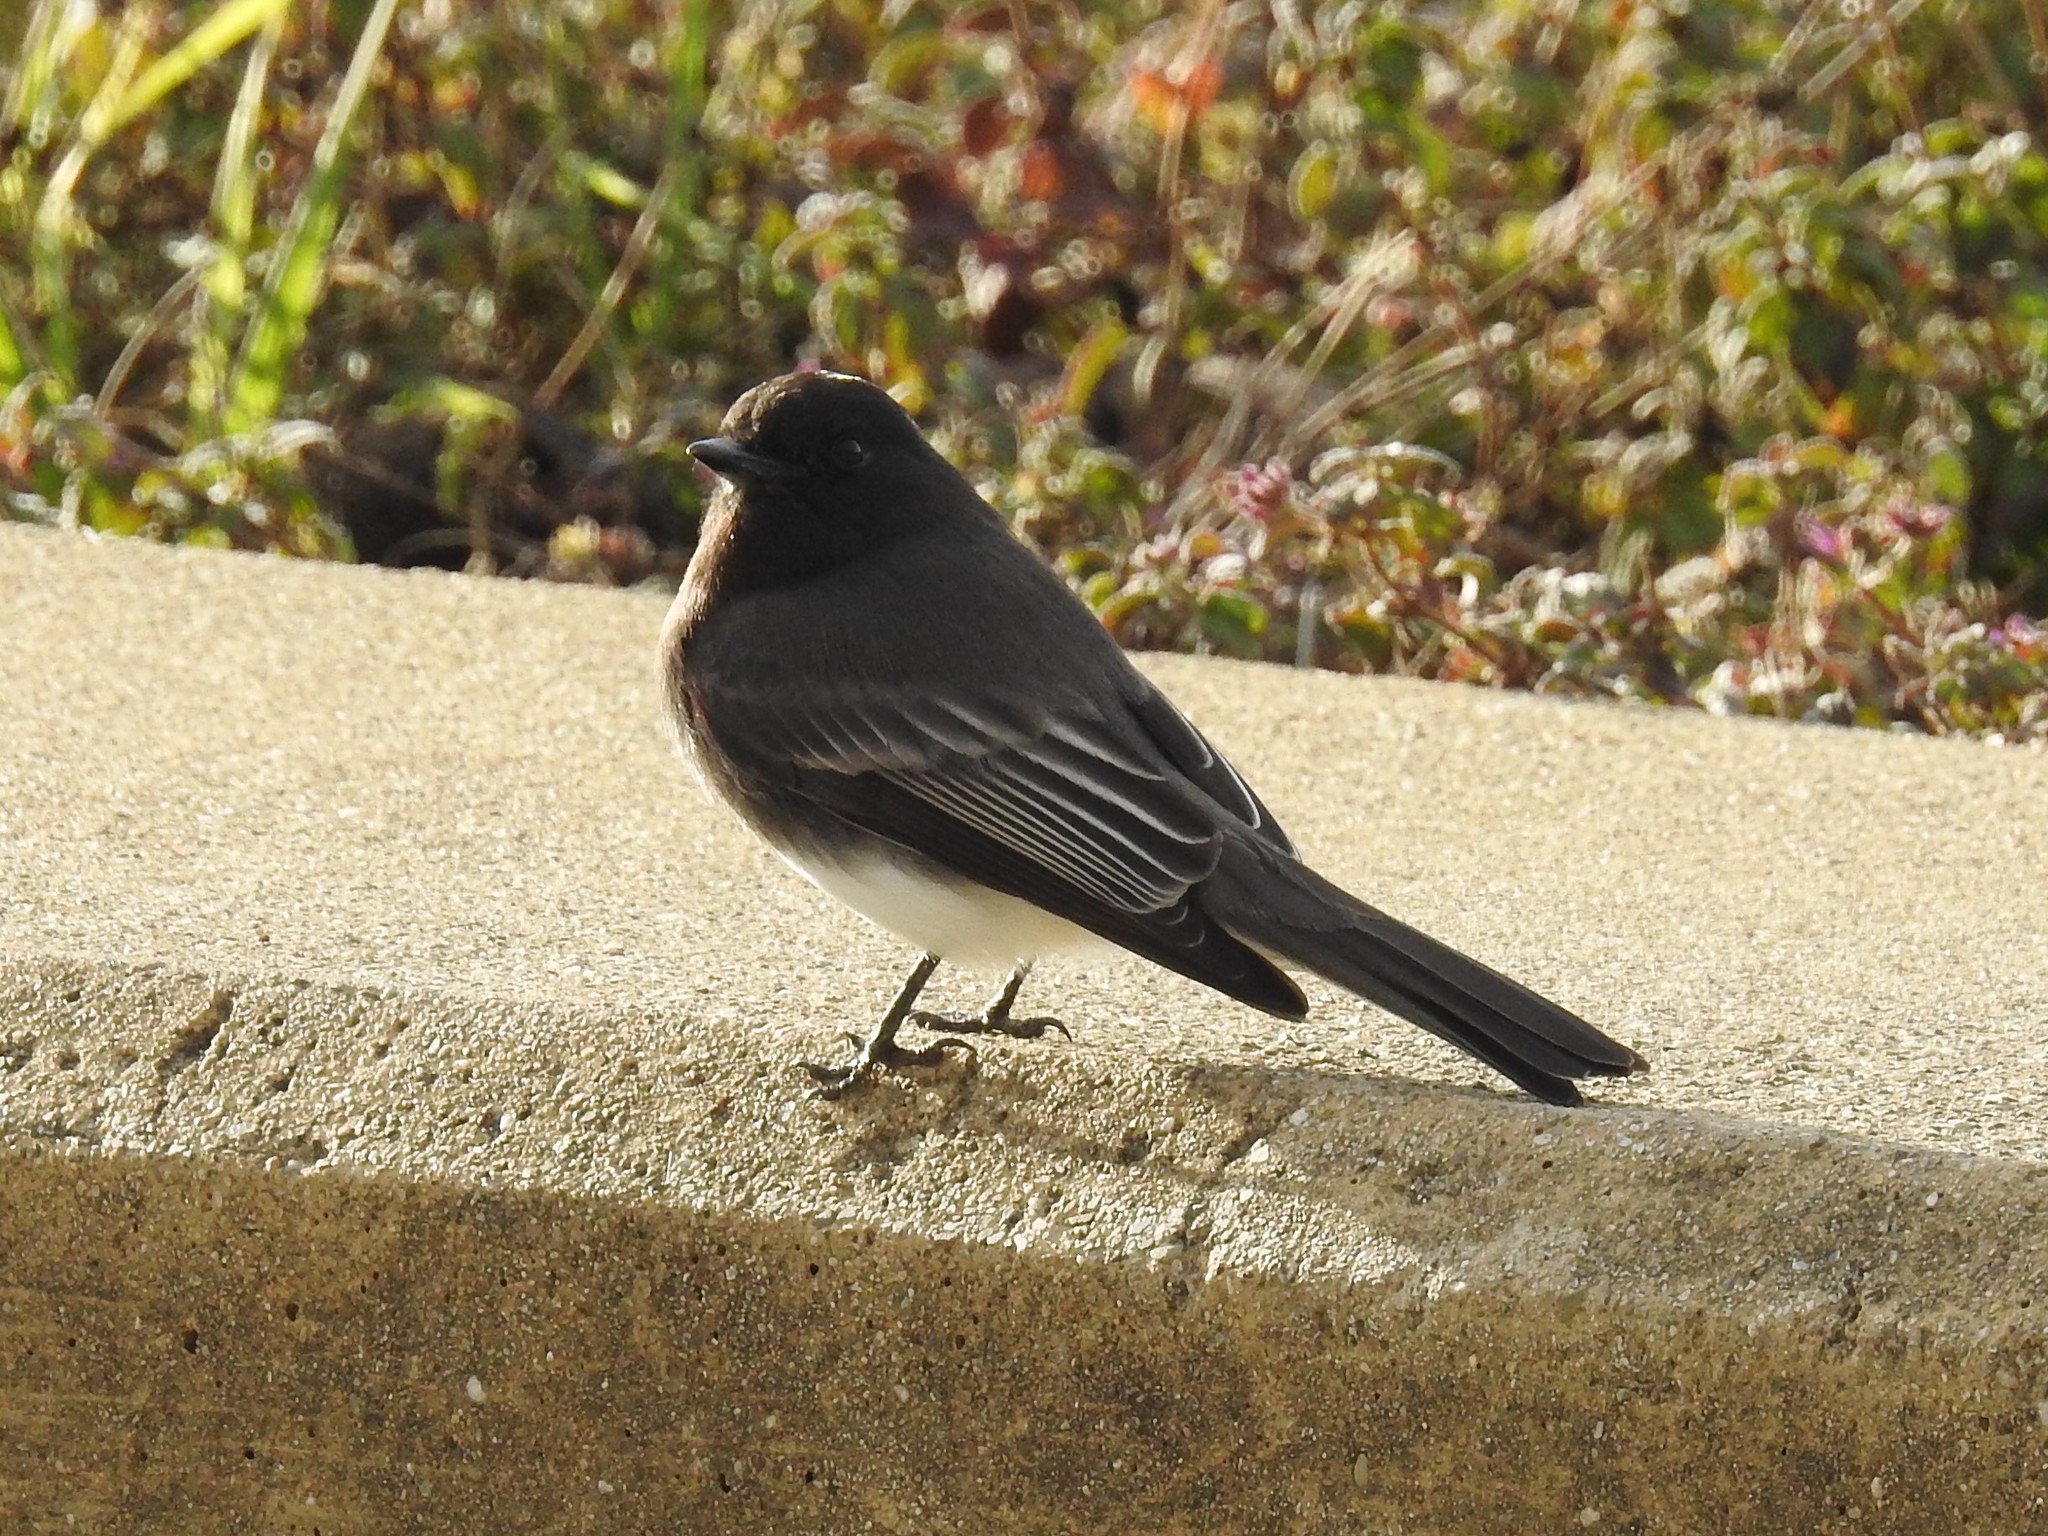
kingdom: Animalia
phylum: Chordata
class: Aves
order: Passeriformes
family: Tyrannidae
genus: Sayornis
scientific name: Sayornis nigricans
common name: Black phoebe
